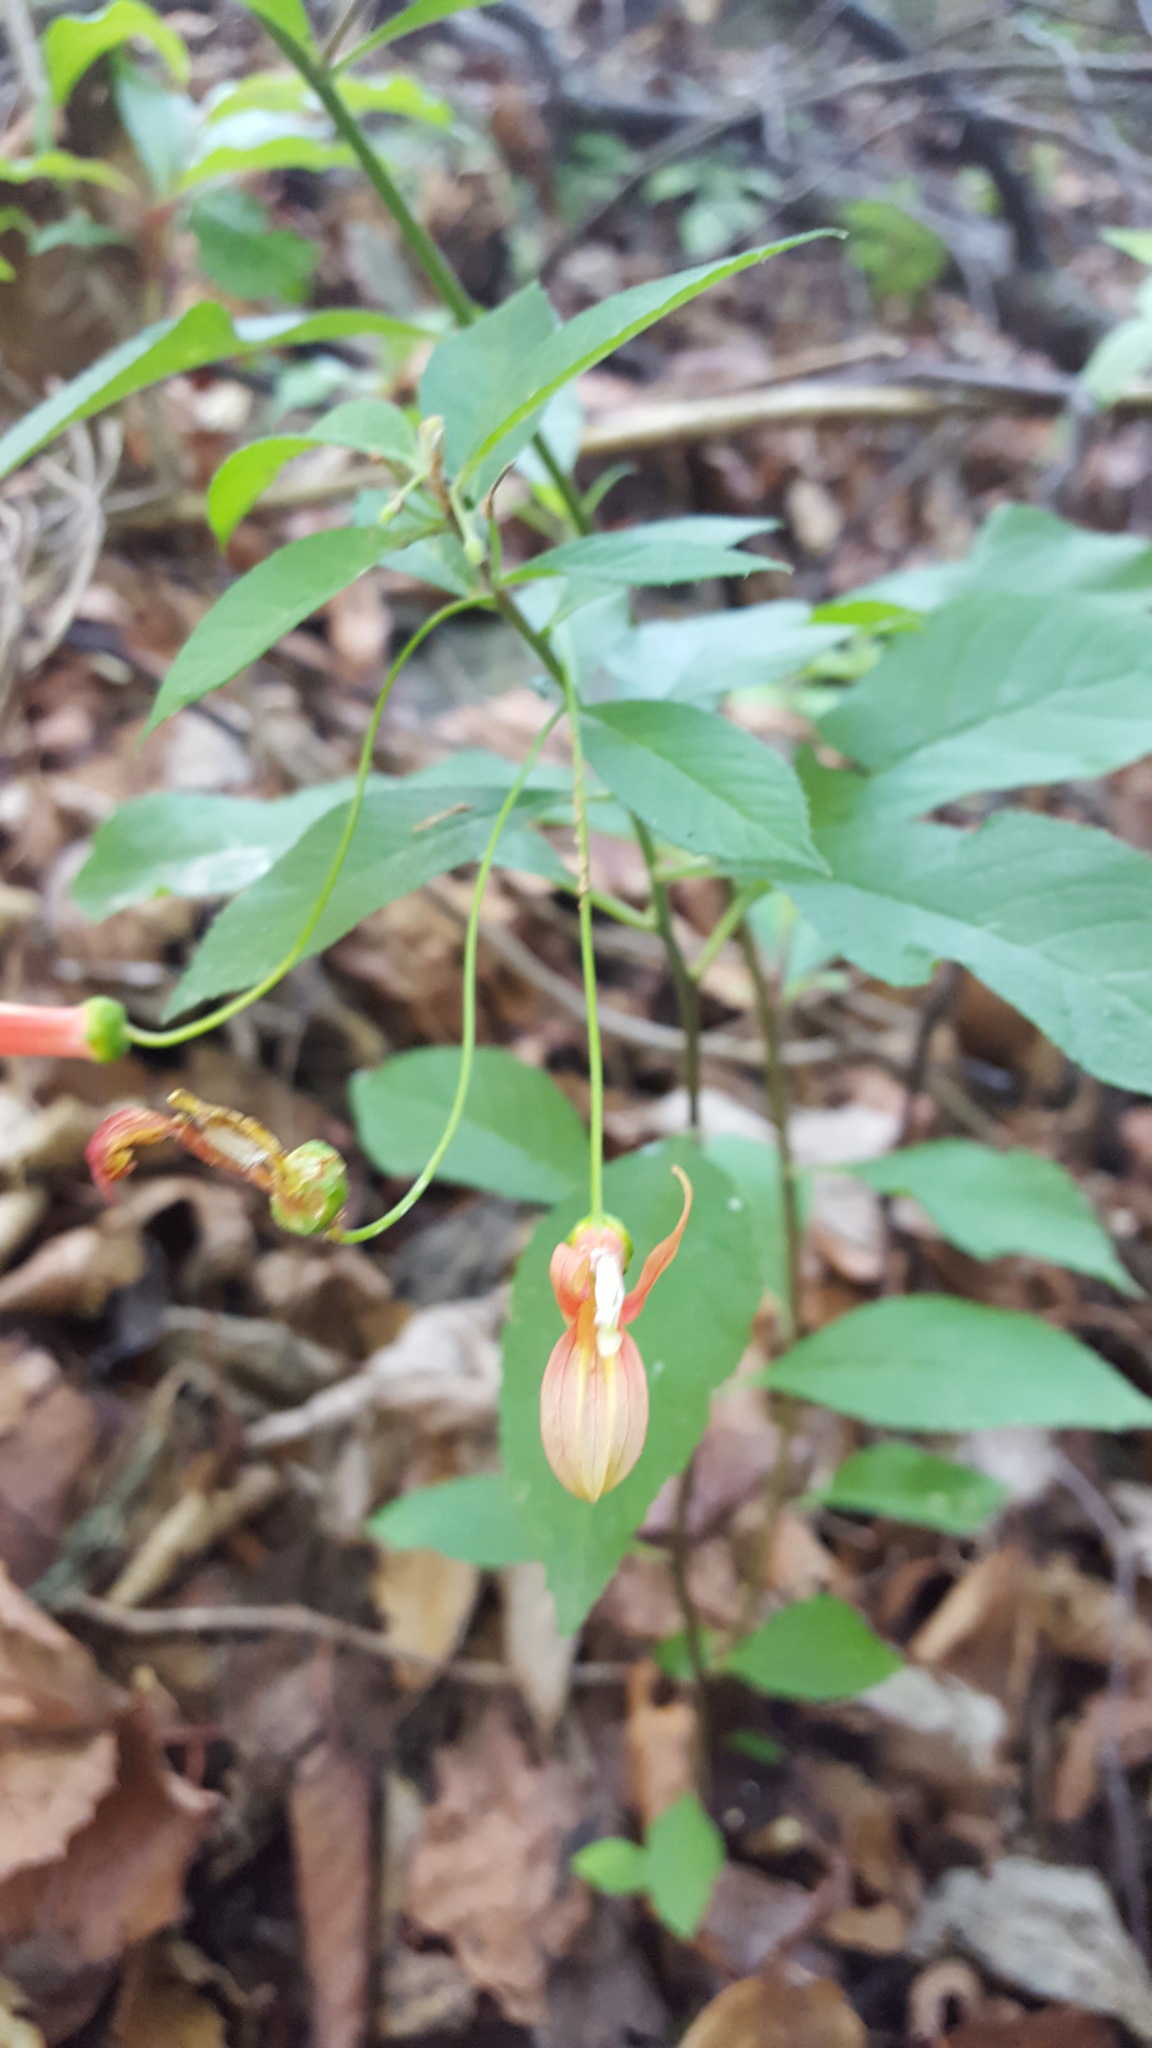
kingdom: Plantae
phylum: Tracheophyta
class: Magnoliopsida
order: Asterales
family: Campanulaceae
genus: Lobelia
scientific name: Lobelia laxiflora
